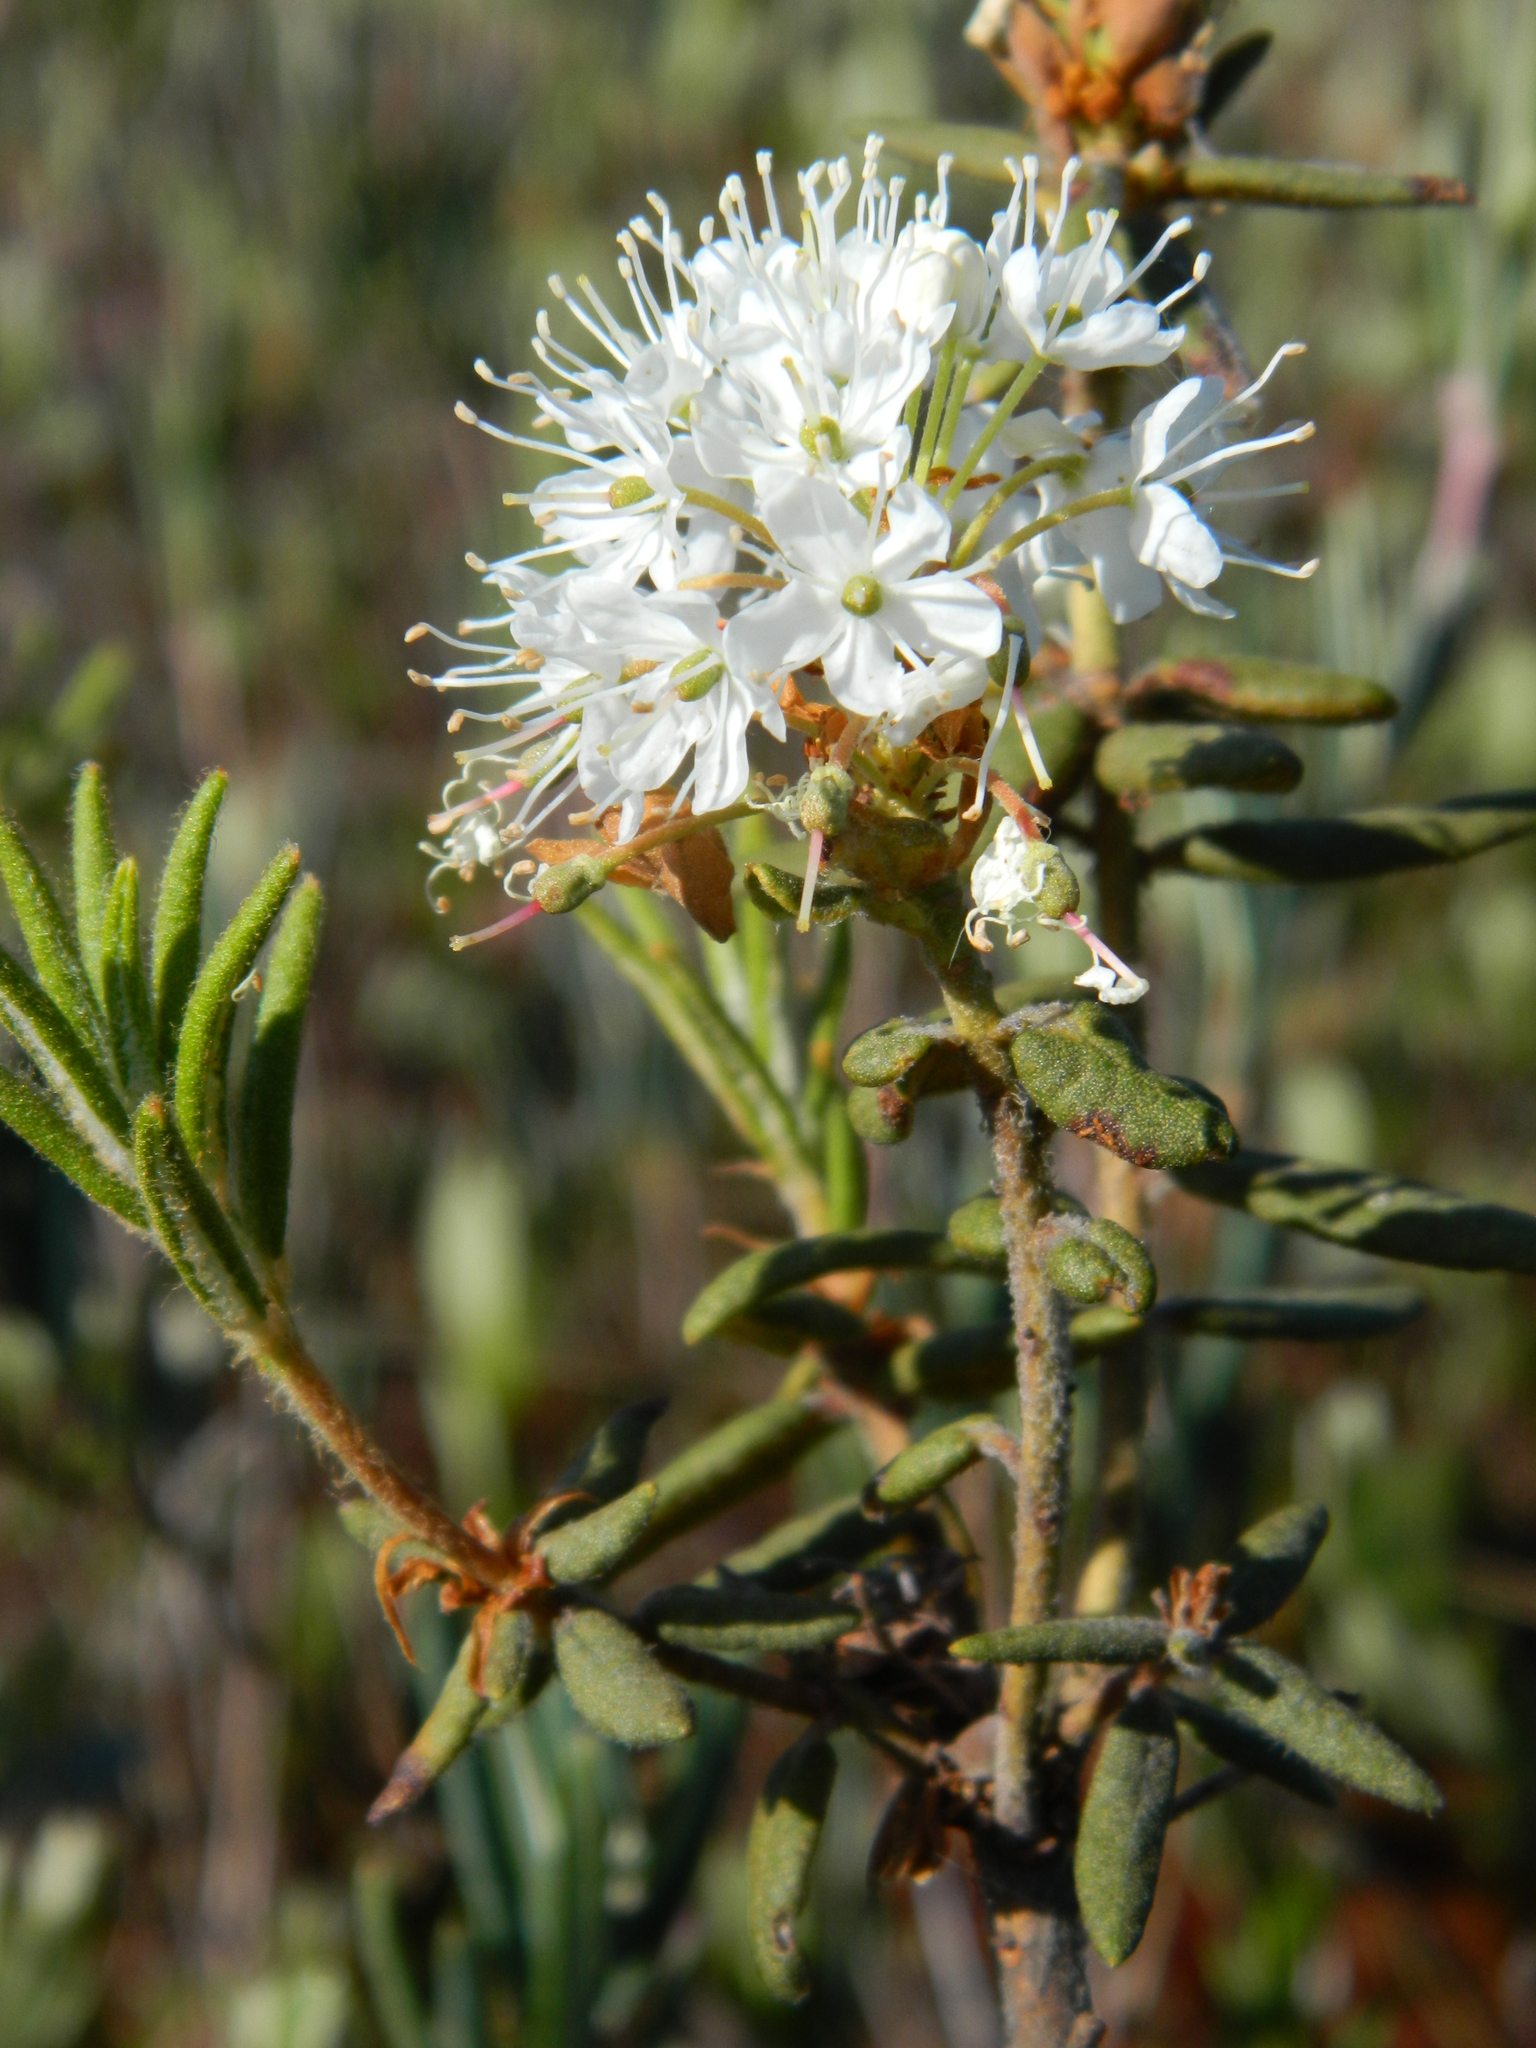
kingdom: Plantae
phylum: Tracheophyta
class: Magnoliopsida
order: Ericales
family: Ericaceae
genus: Rhododendron
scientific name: Rhododendron groenlandicum
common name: Bog labrador tea
